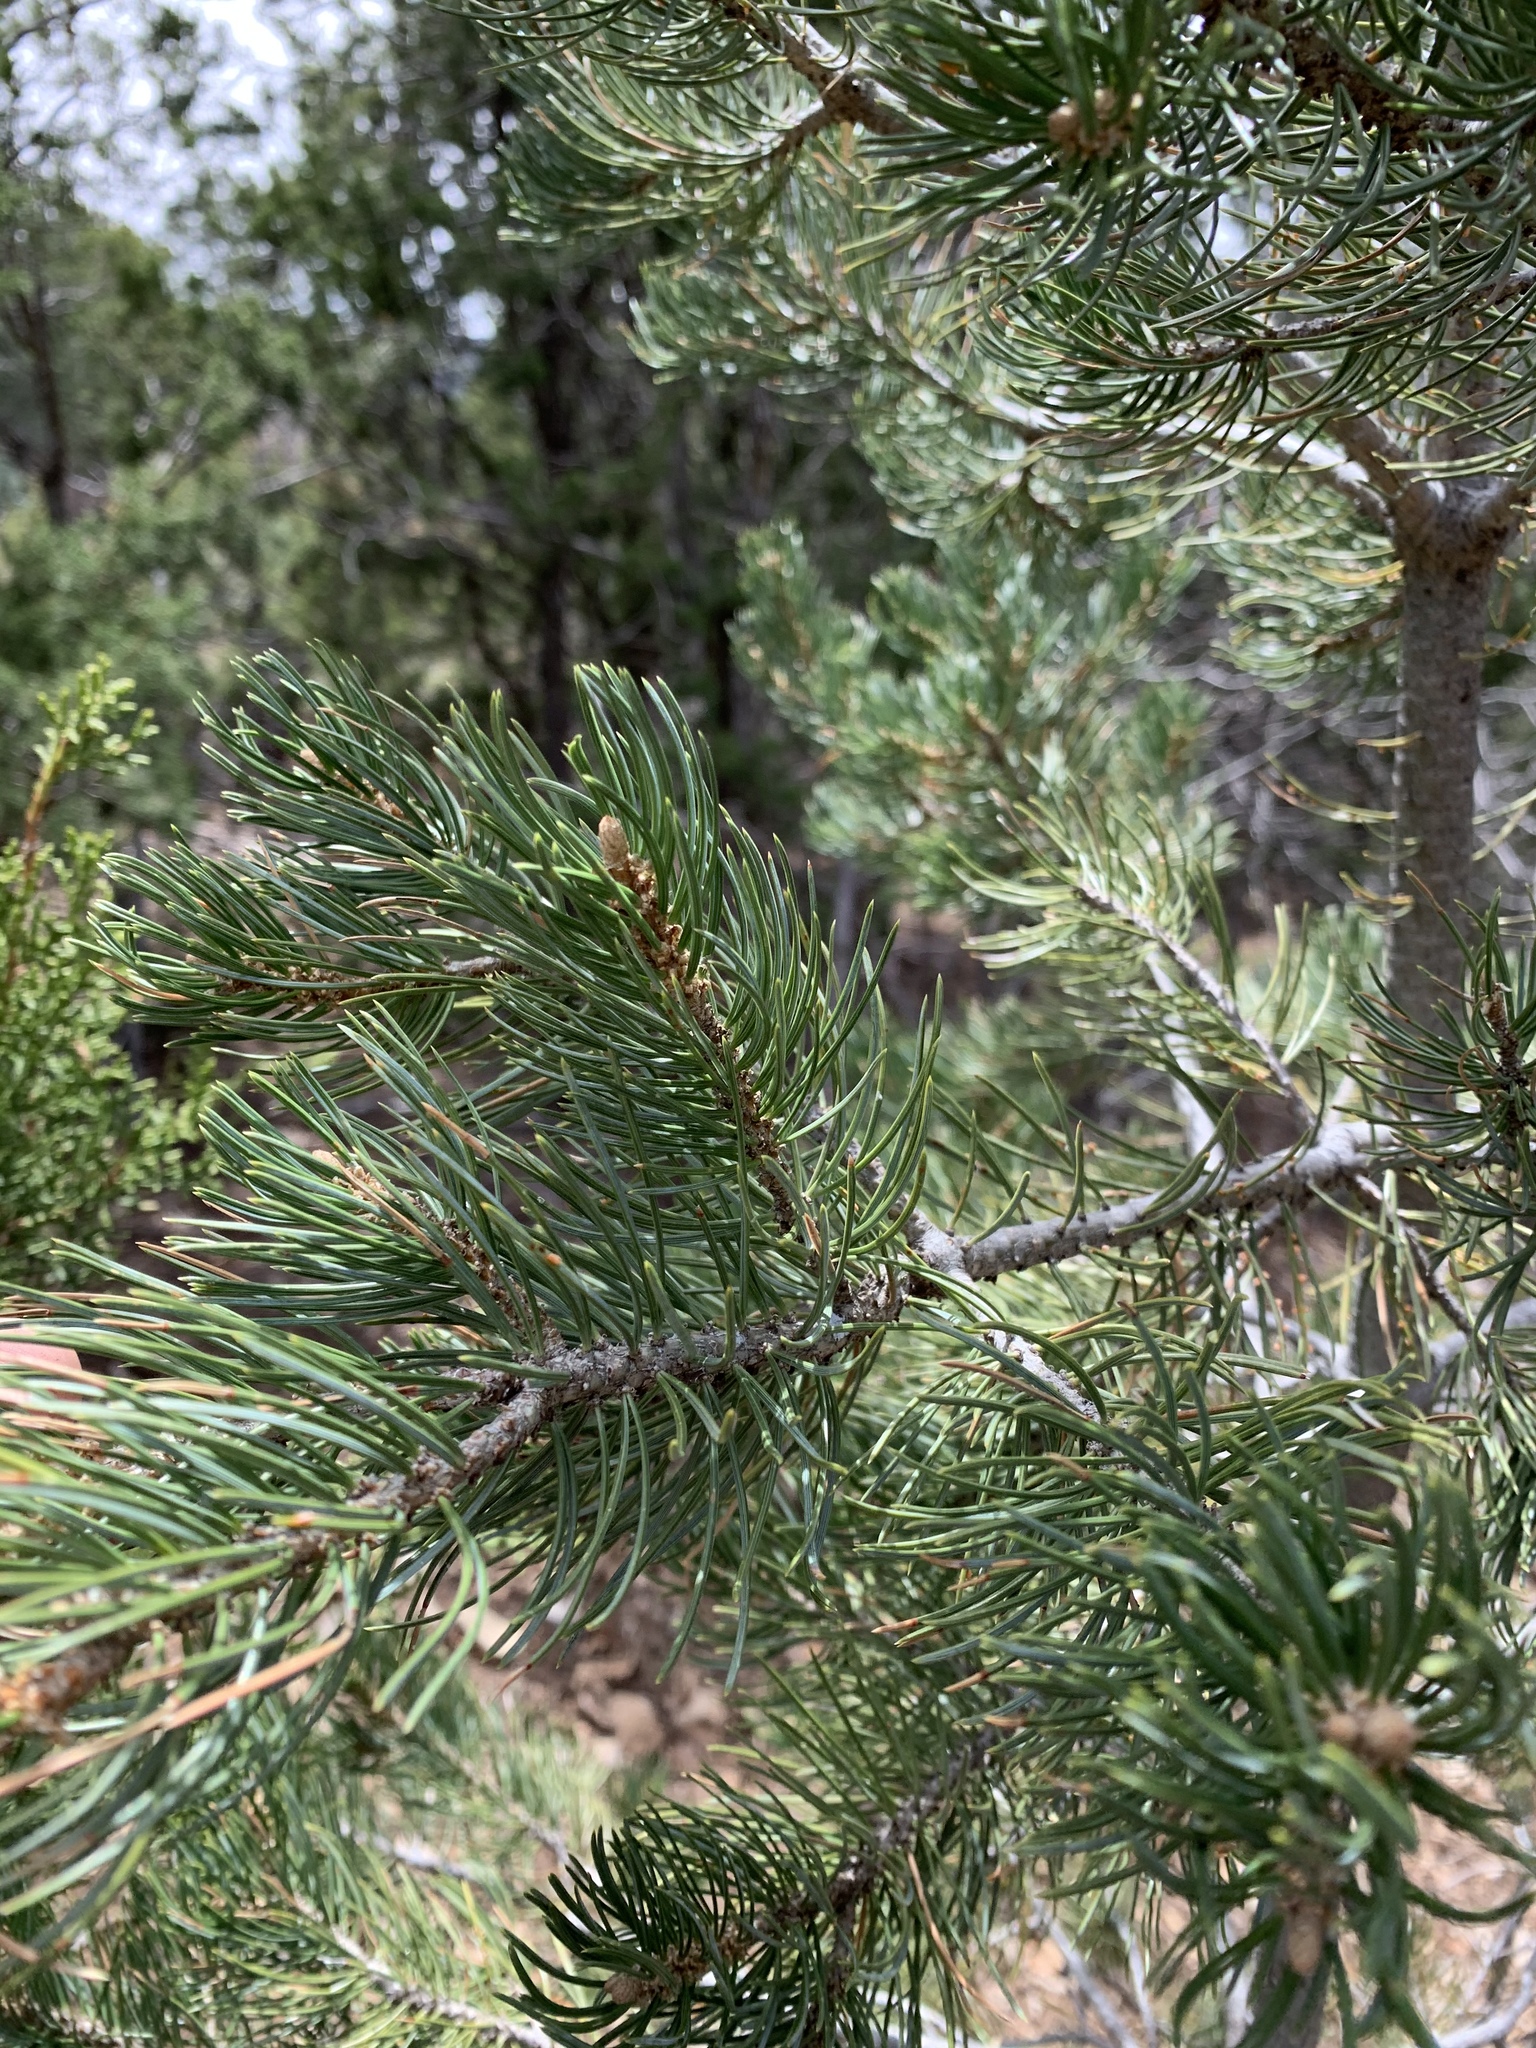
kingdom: Plantae
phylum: Tracheophyta
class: Pinopsida
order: Pinales
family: Pinaceae
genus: Pinus
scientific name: Pinus edulis
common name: Colorado pinyon
